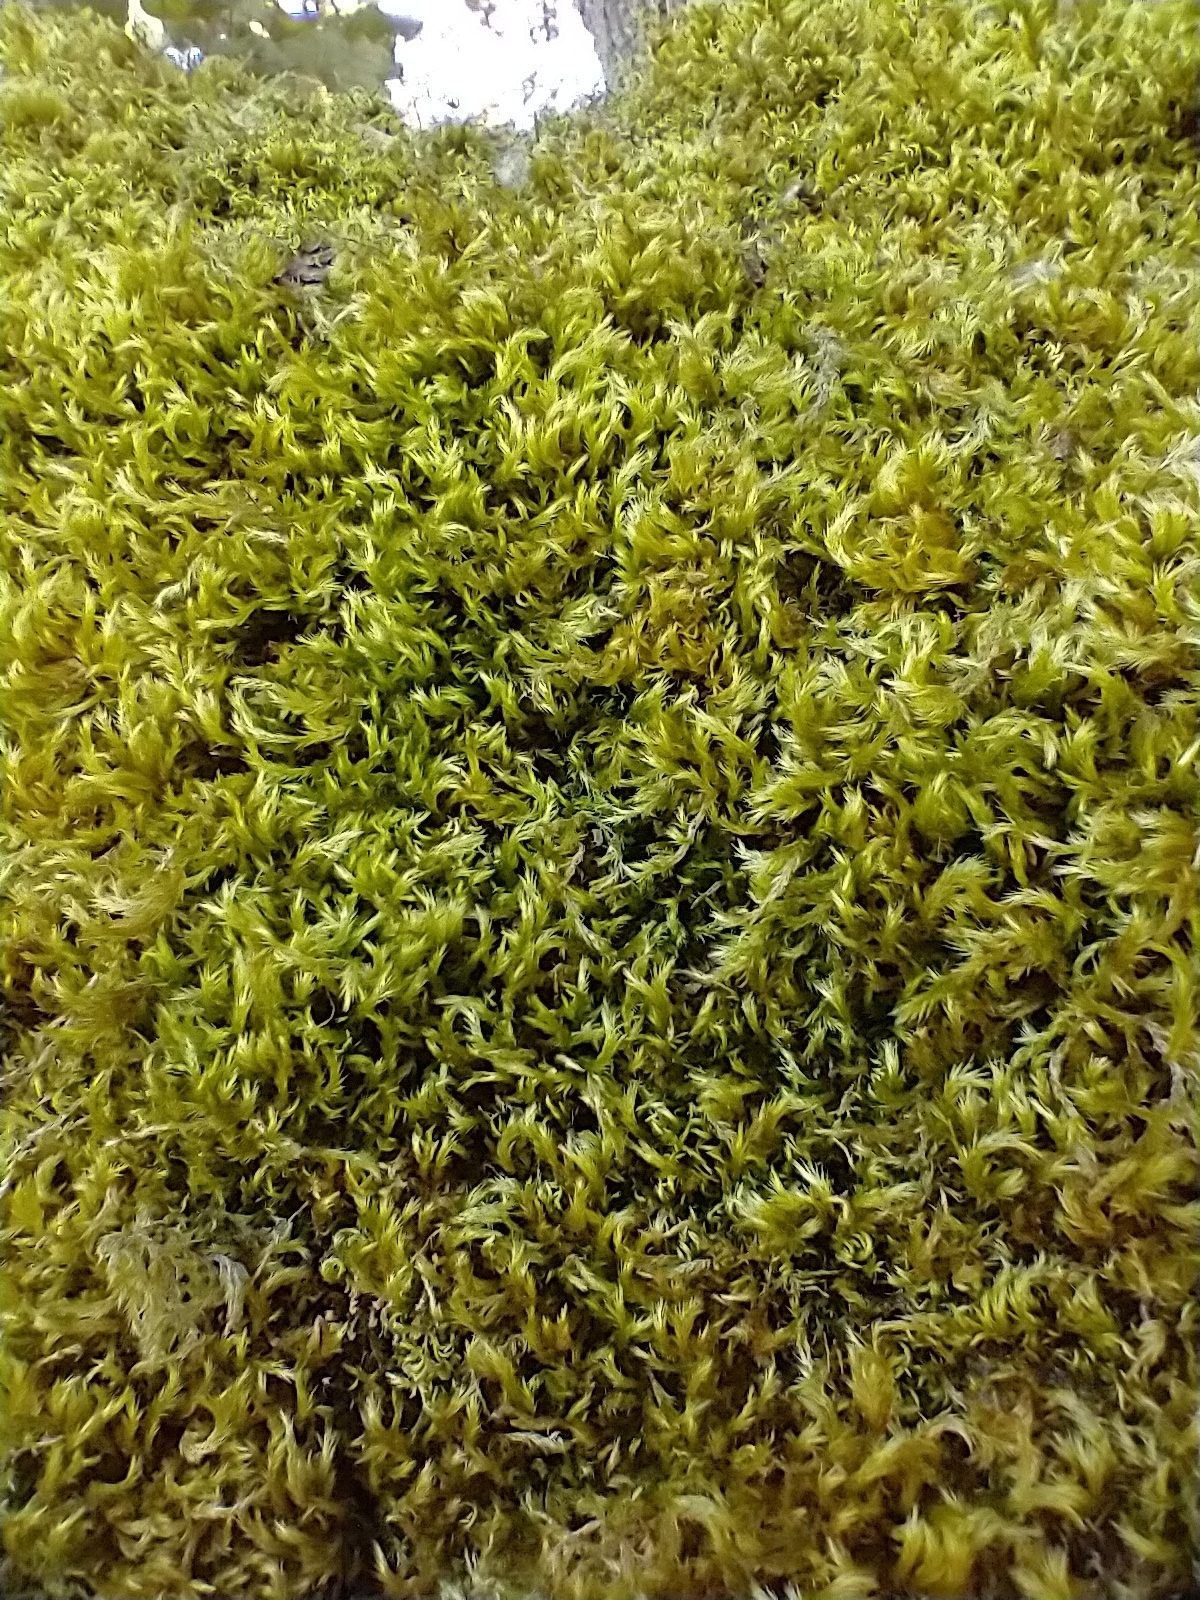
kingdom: Plantae
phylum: Bryophyta
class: Bryopsida
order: Hypnales
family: Brachytheciaceae
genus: Homalothecium
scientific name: Homalothecium fulgescens
